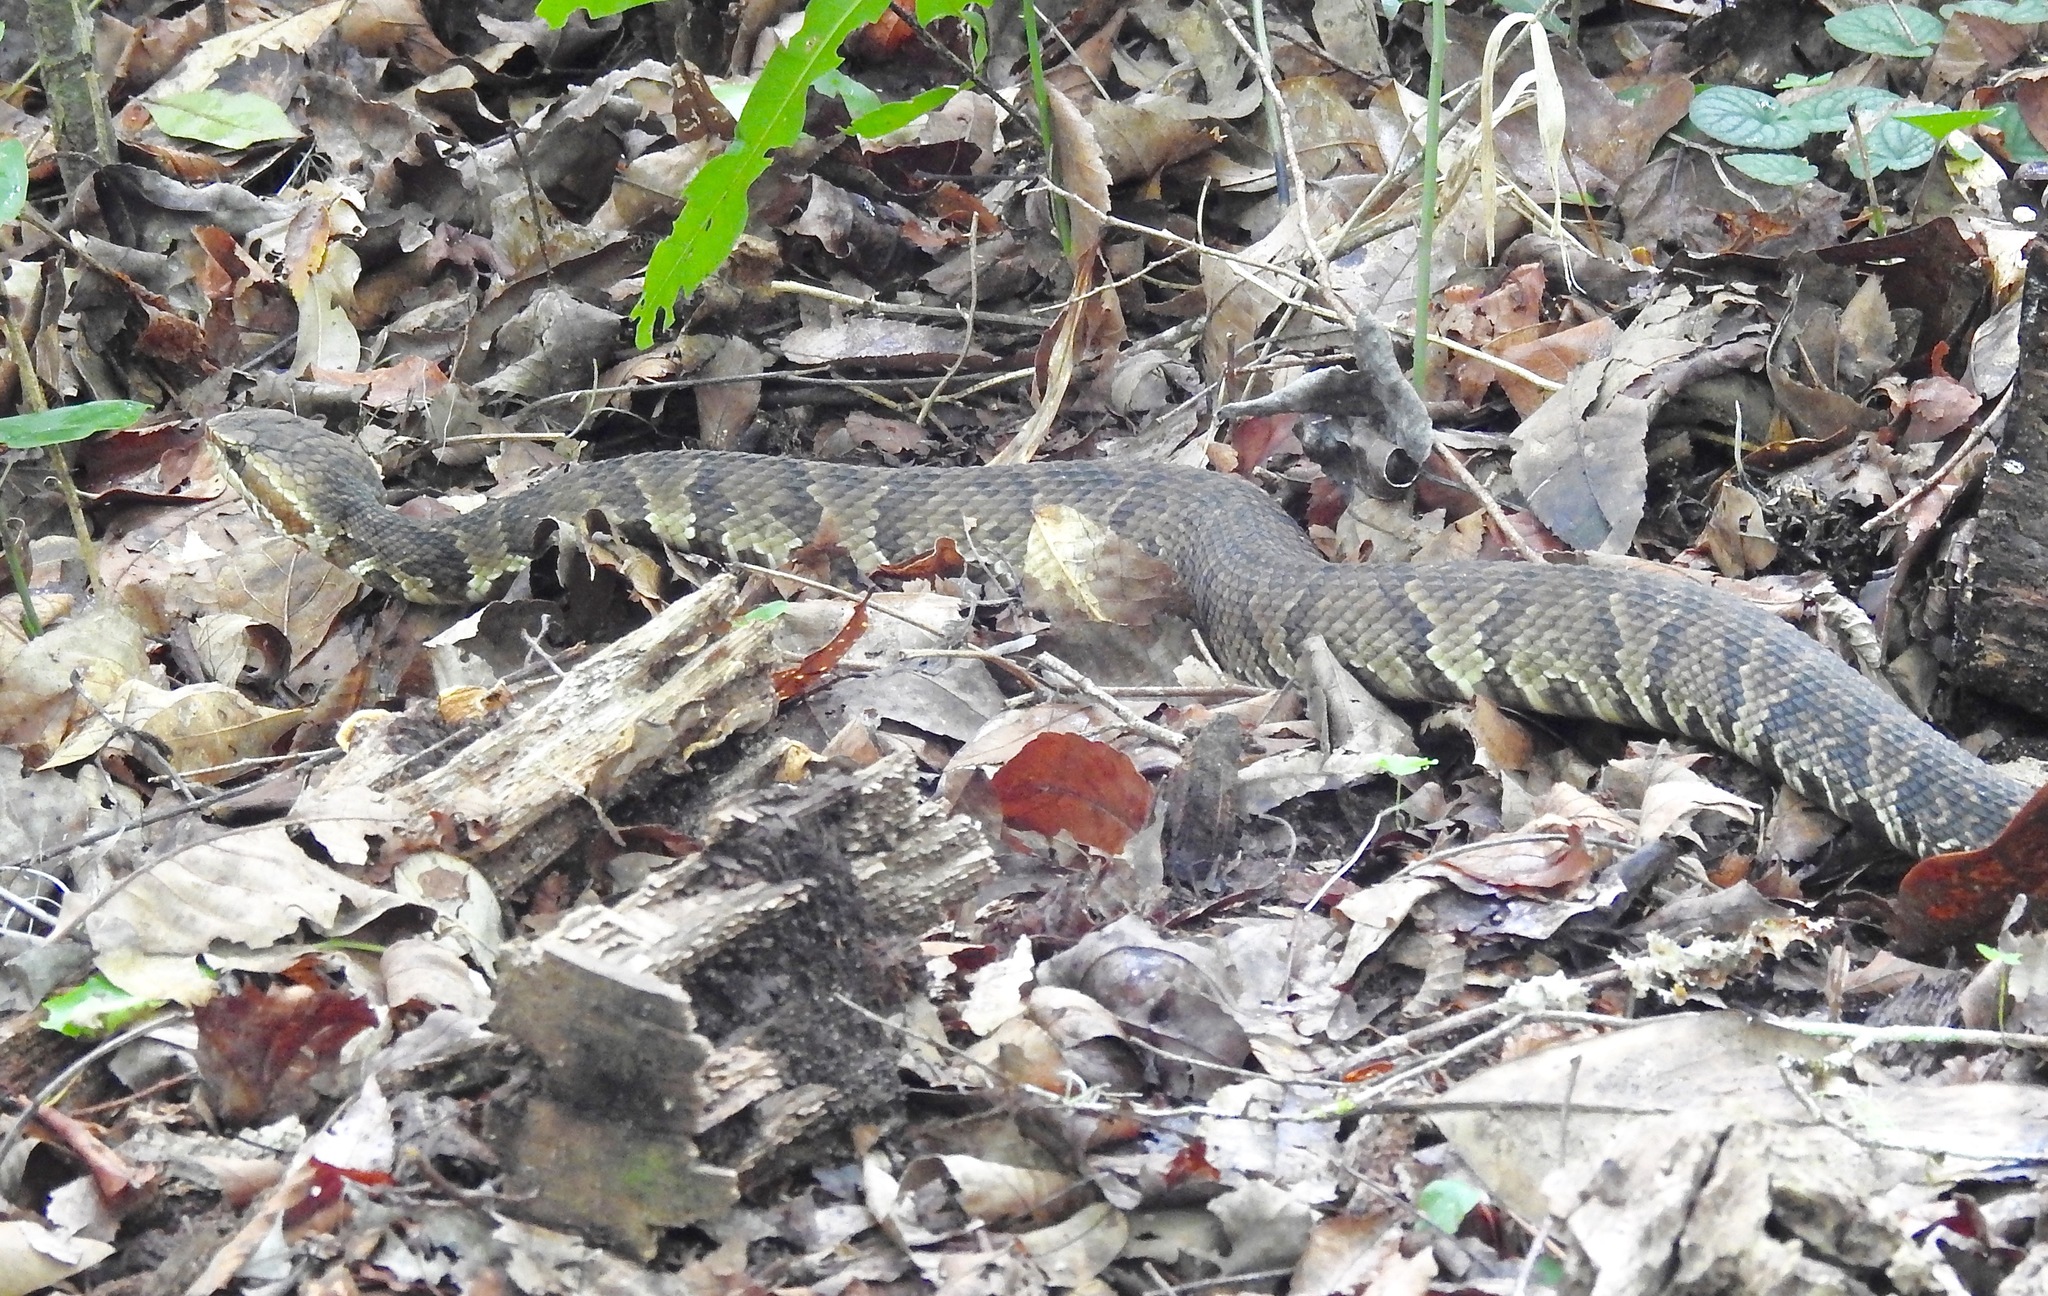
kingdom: Animalia
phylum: Chordata
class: Squamata
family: Viperidae
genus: Agkistrodon
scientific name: Agkistrodon conanti
